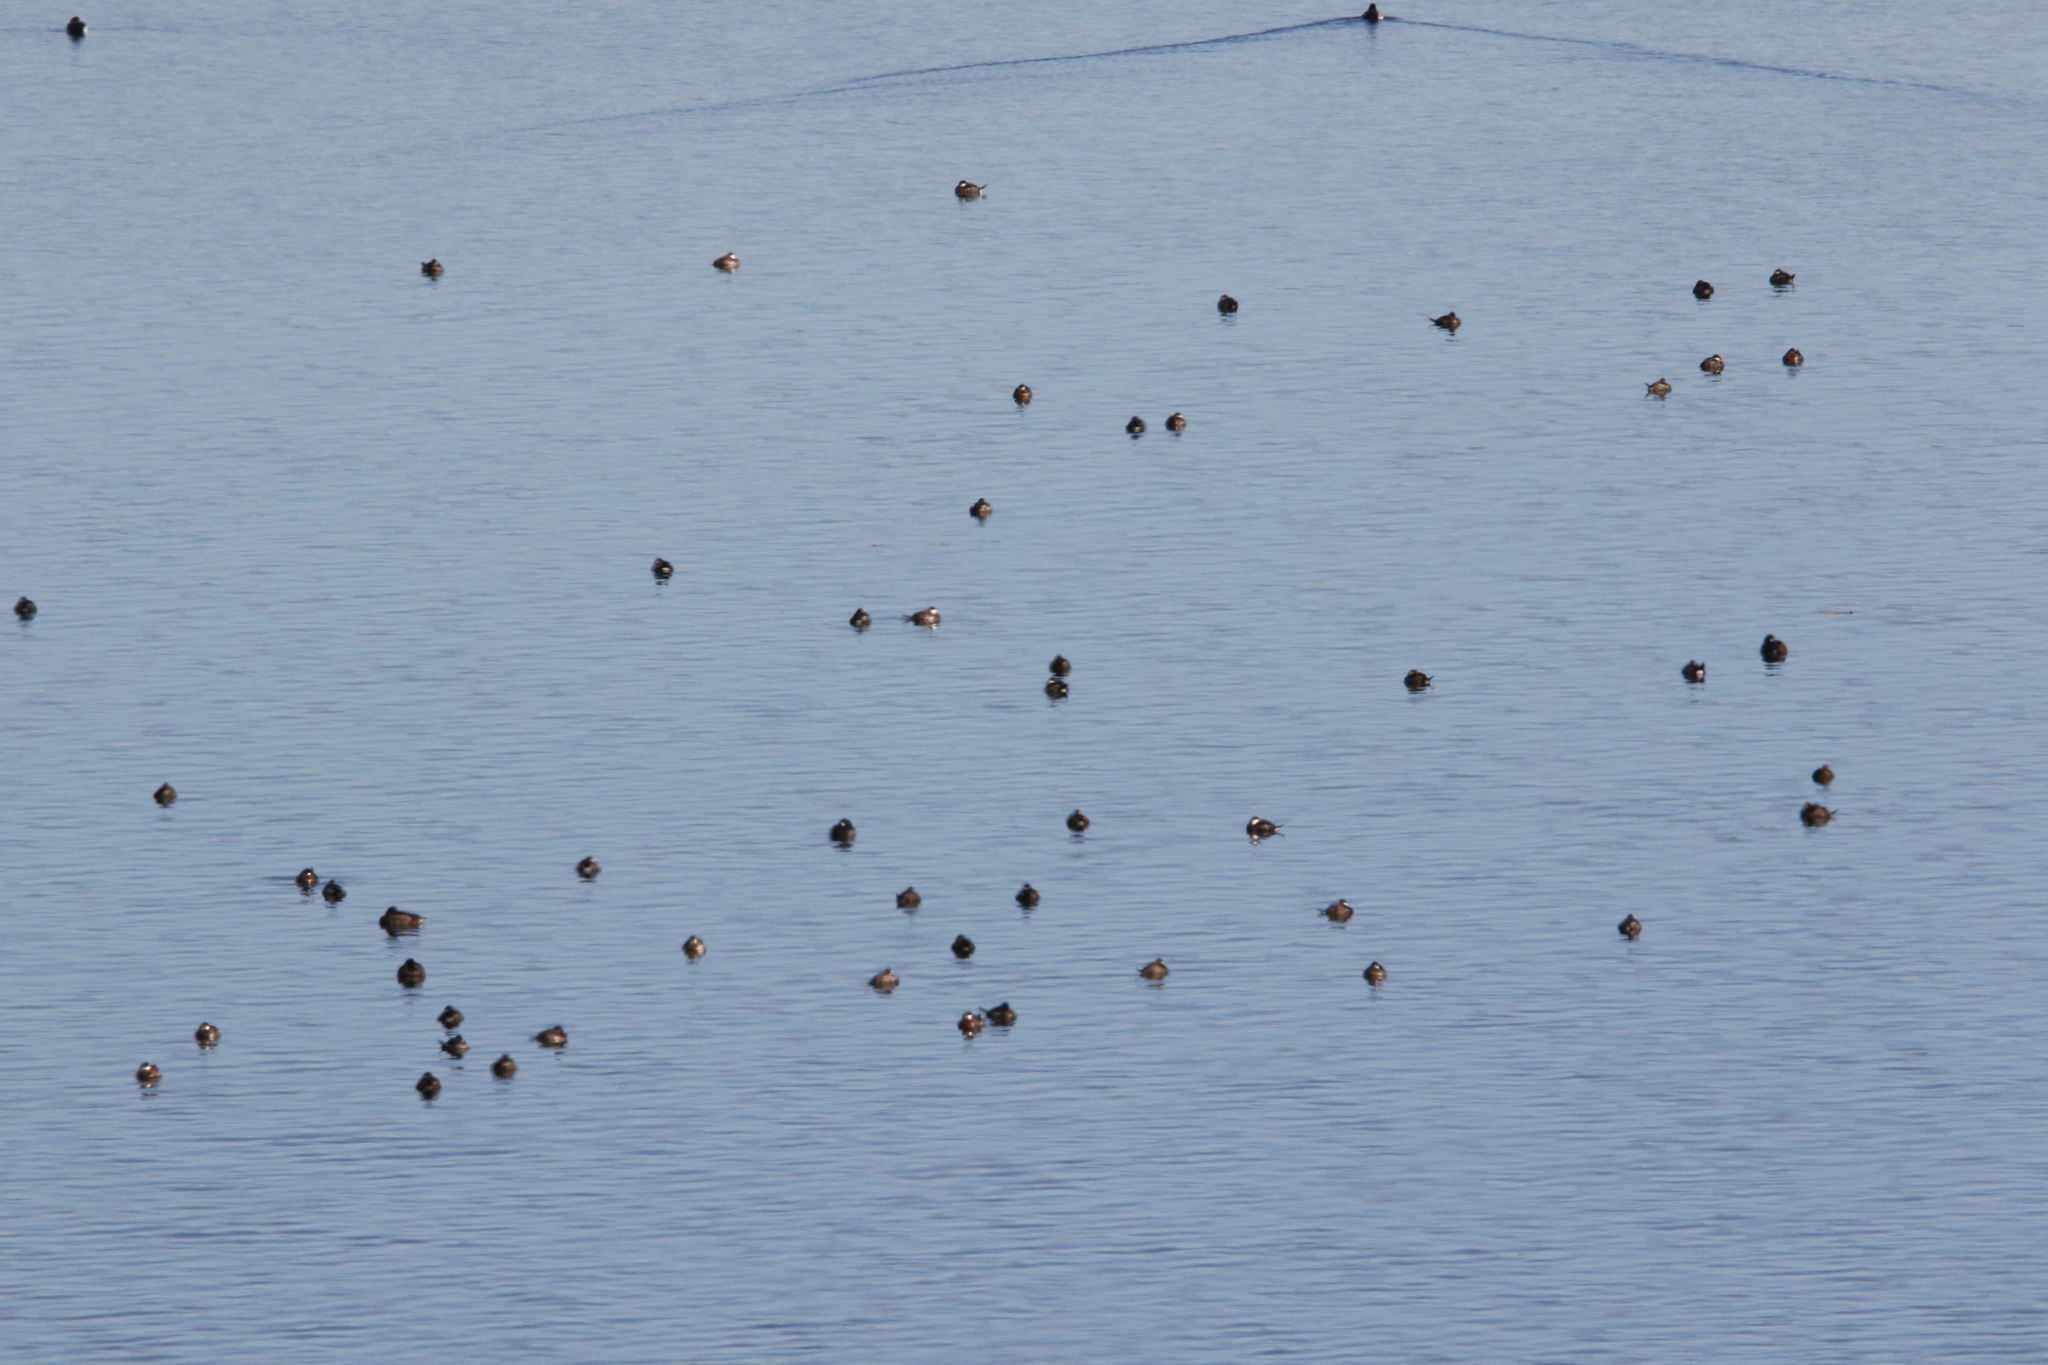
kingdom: Animalia
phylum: Chordata
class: Aves
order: Anseriformes
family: Anatidae
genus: Oxyura
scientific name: Oxyura jamaicensis
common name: Ruddy duck
